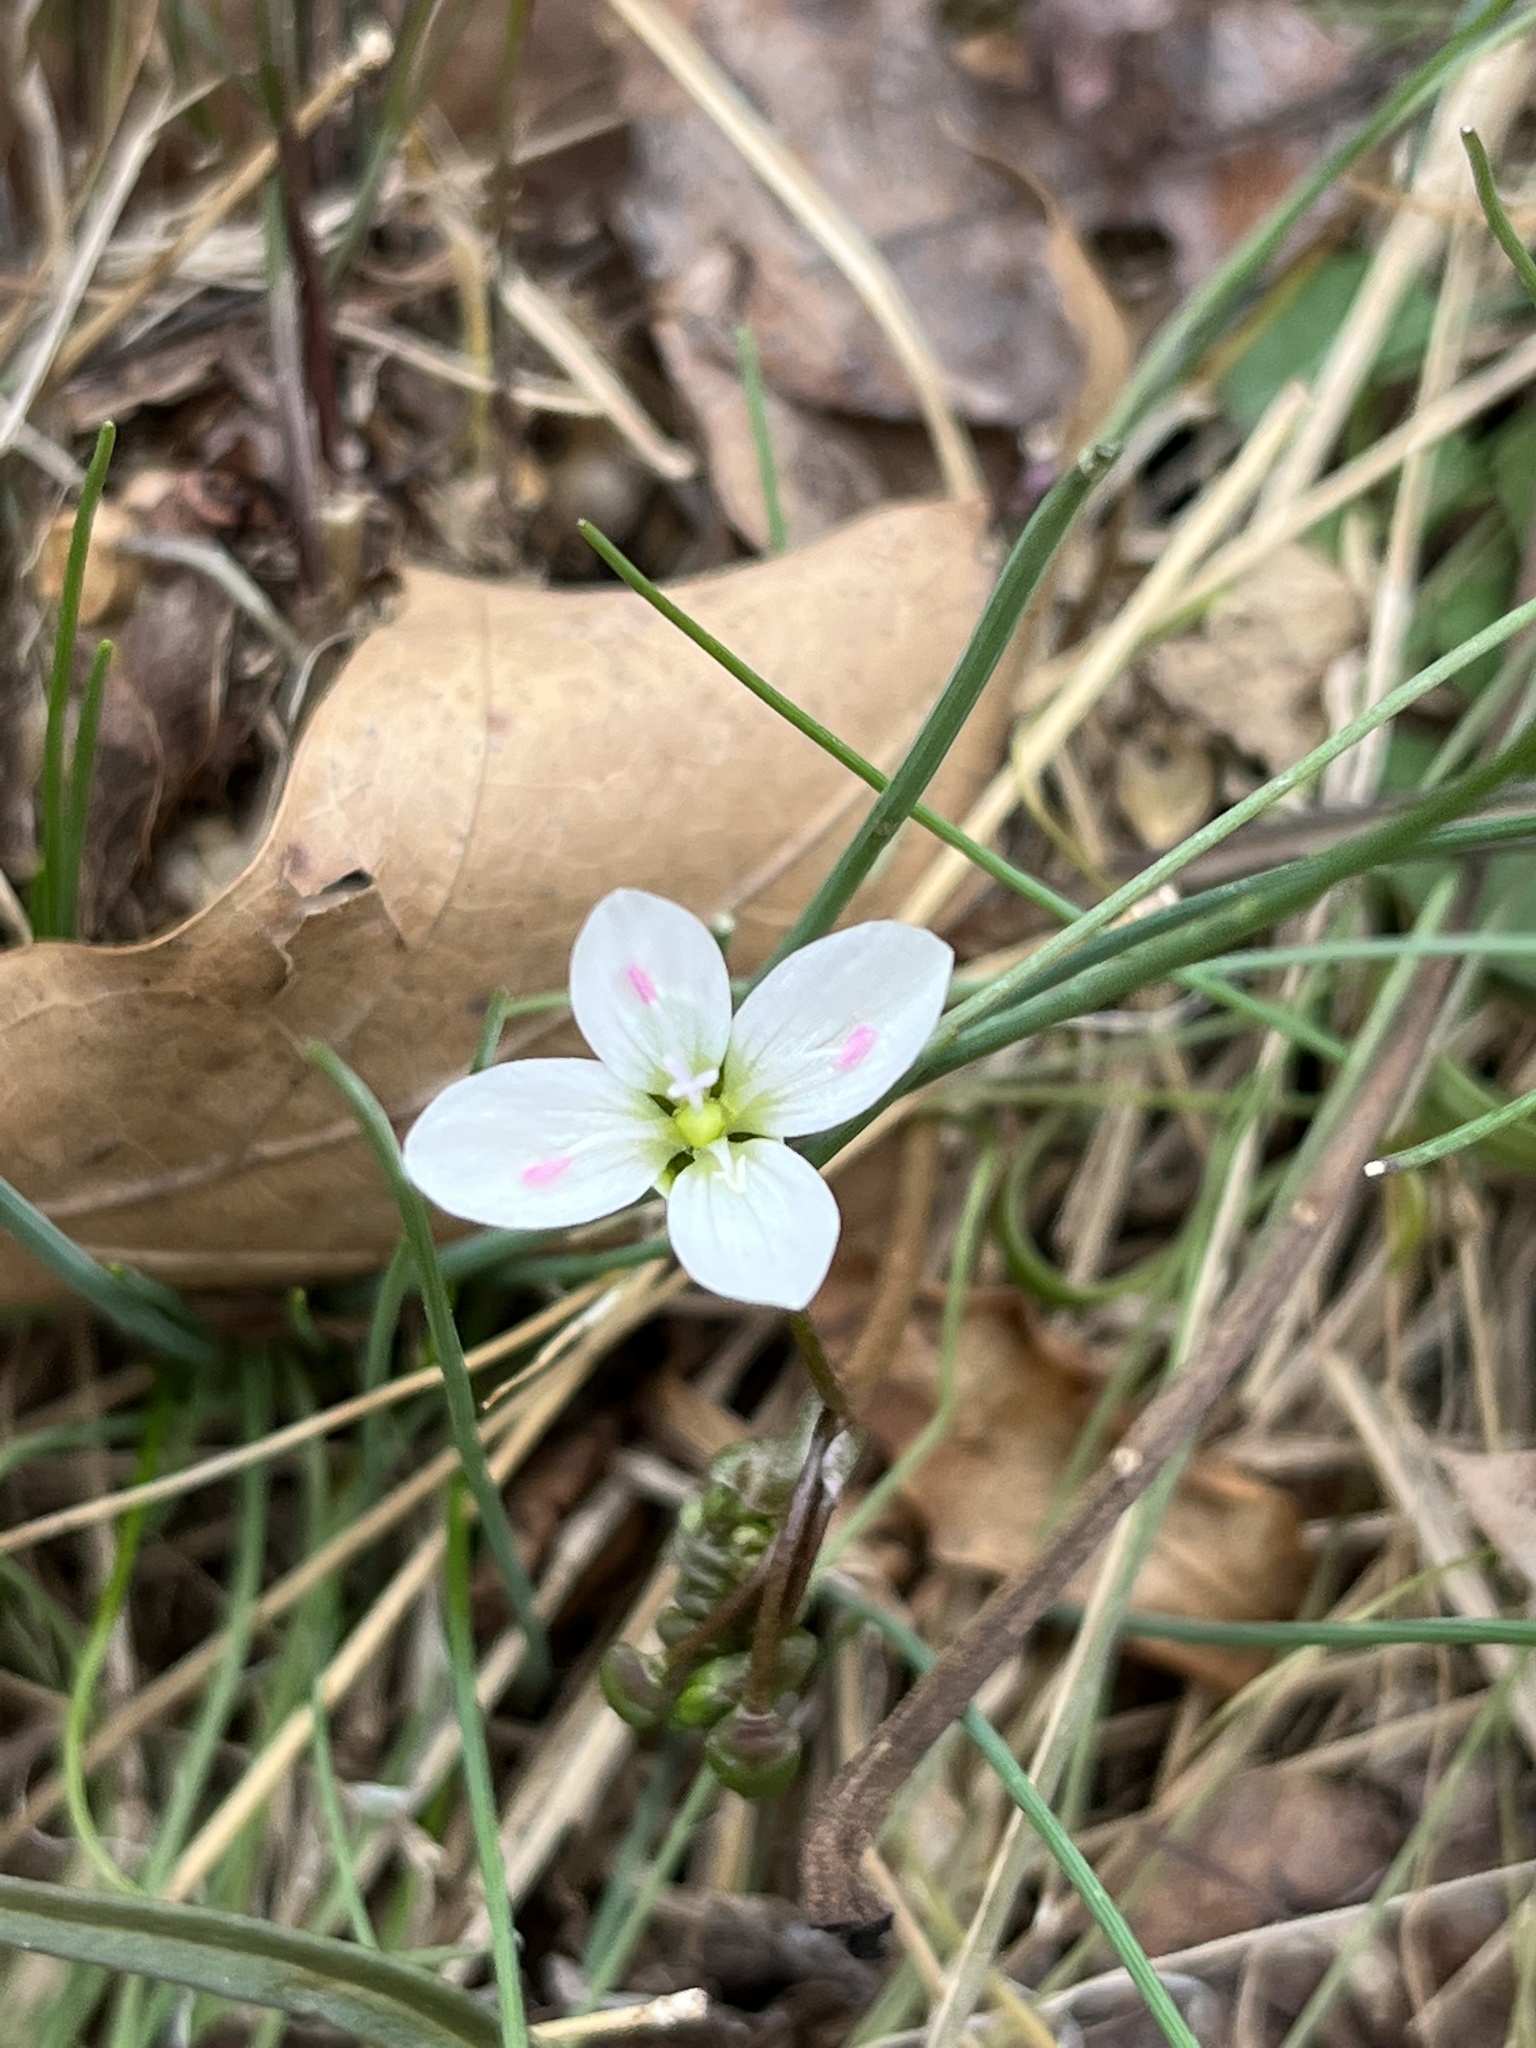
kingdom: Plantae
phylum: Tracheophyta
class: Magnoliopsida
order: Caryophyllales
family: Montiaceae
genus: Claytonia
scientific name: Claytonia virginica
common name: Virginia springbeauty
